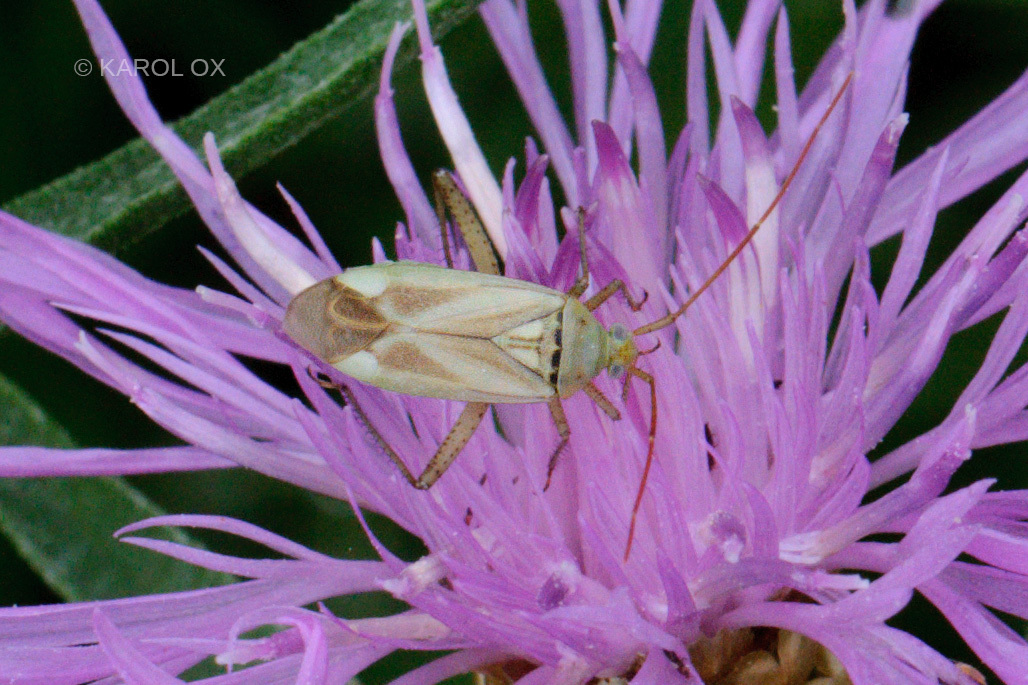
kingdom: Animalia
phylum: Arthropoda
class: Insecta
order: Hemiptera
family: Miridae
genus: Adelphocoris
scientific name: Adelphocoris lineolatus
